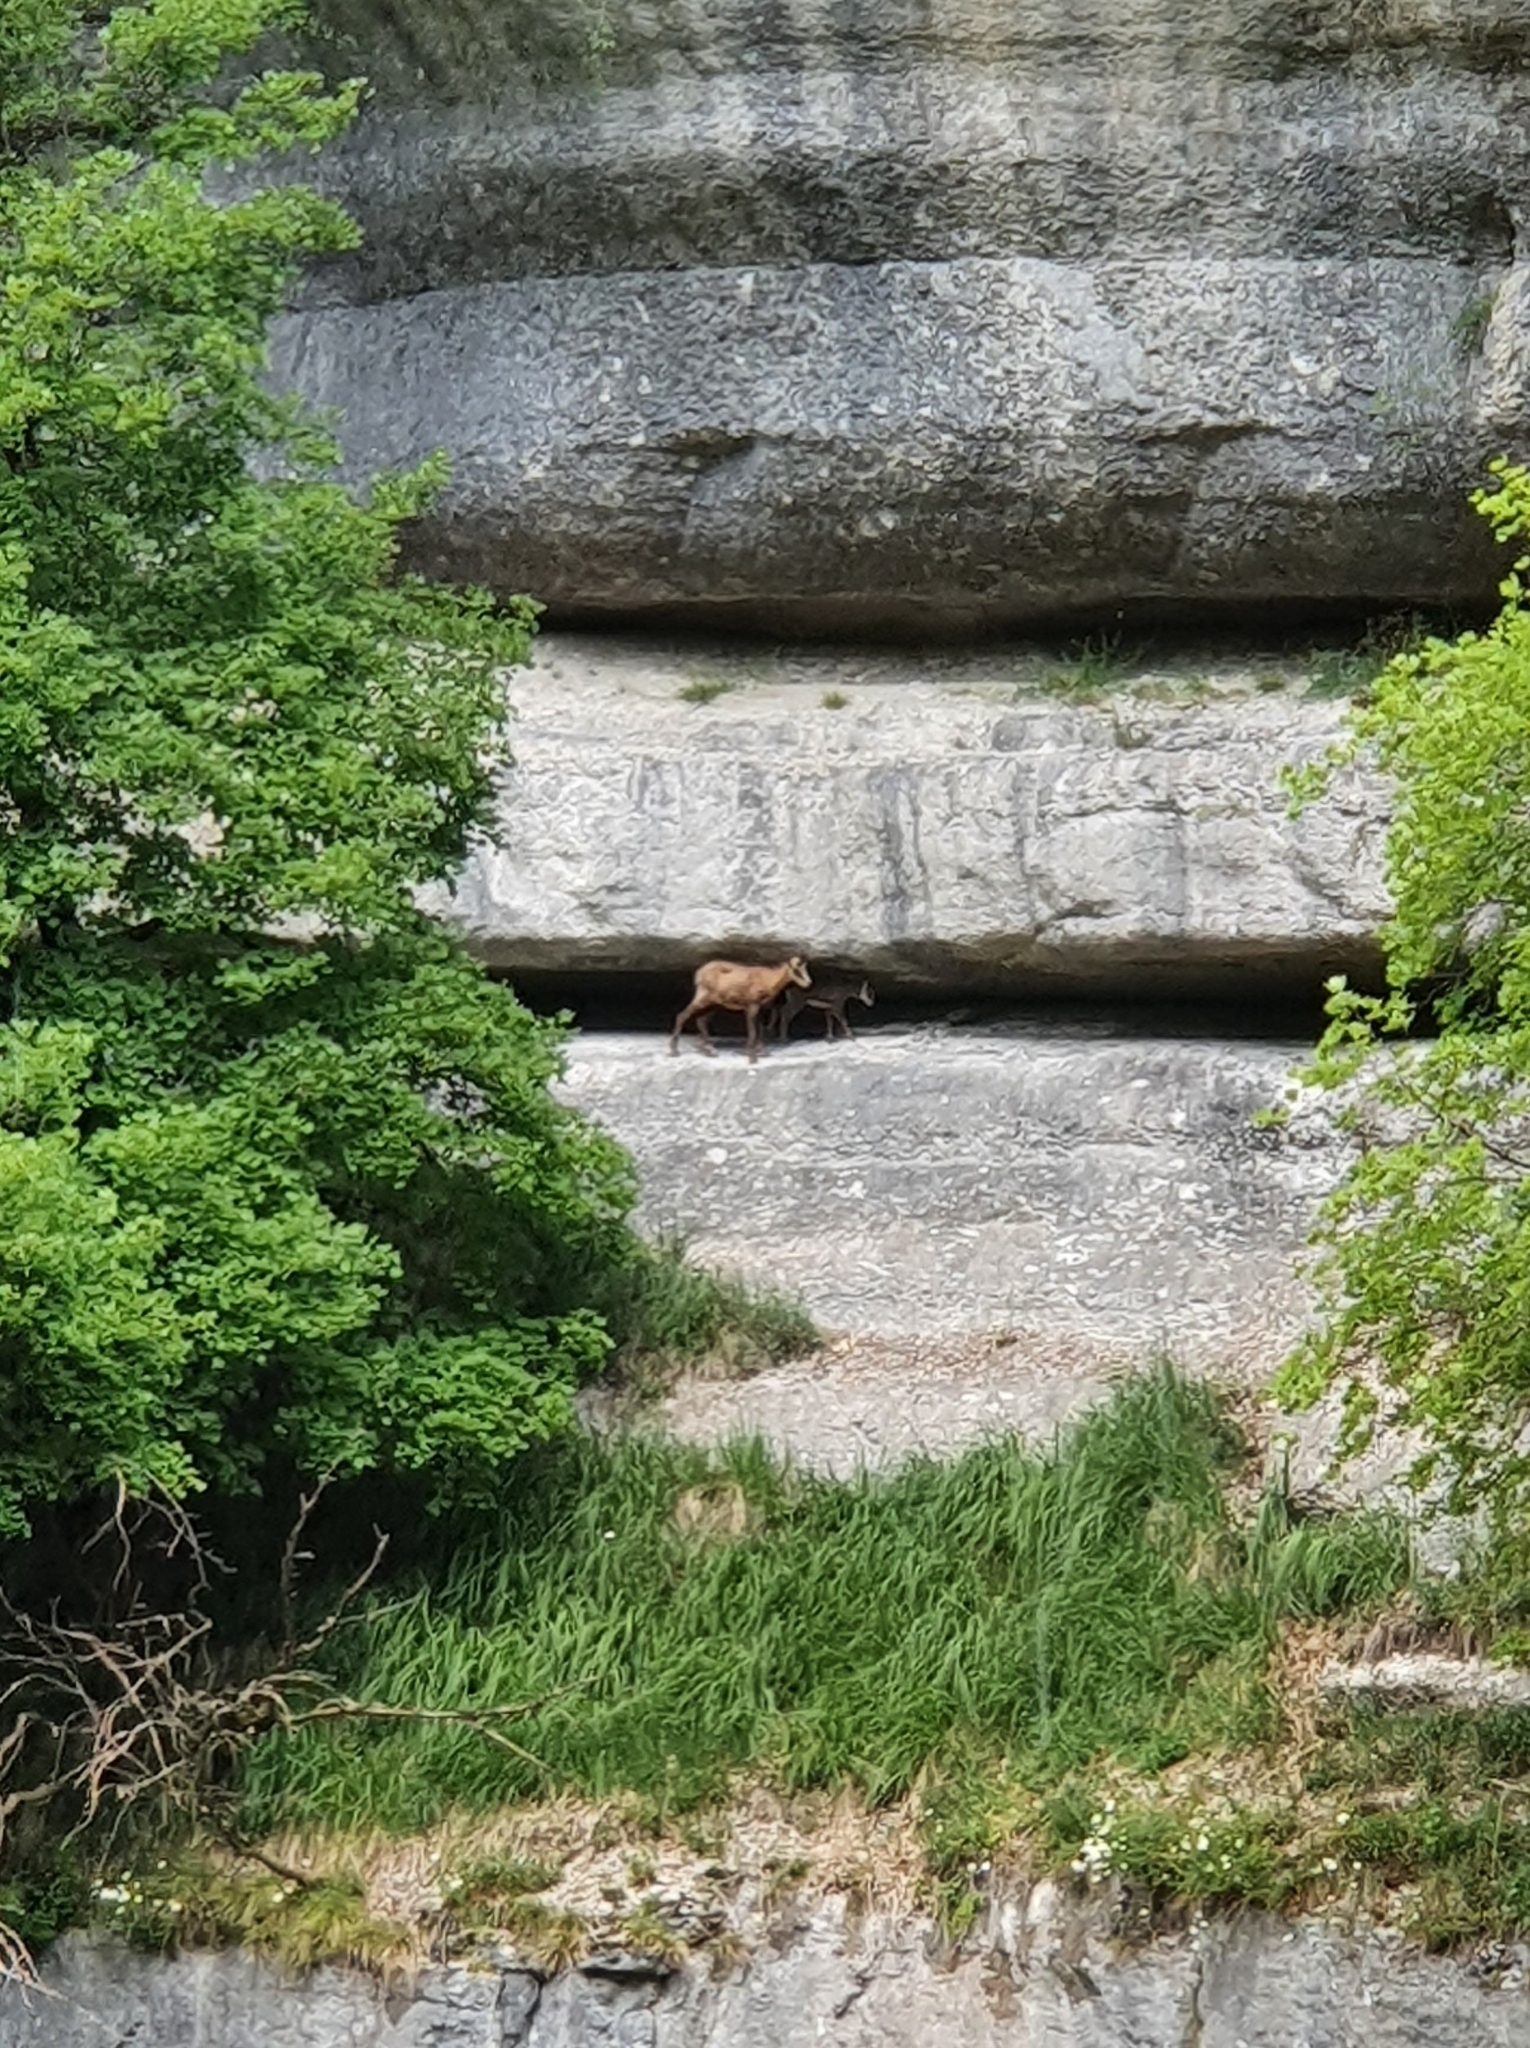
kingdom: Animalia
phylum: Chordata
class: Mammalia
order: Artiodactyla
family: Bovidae
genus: Rupicapra
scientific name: Rupicapra rupicapra
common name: Chamois
